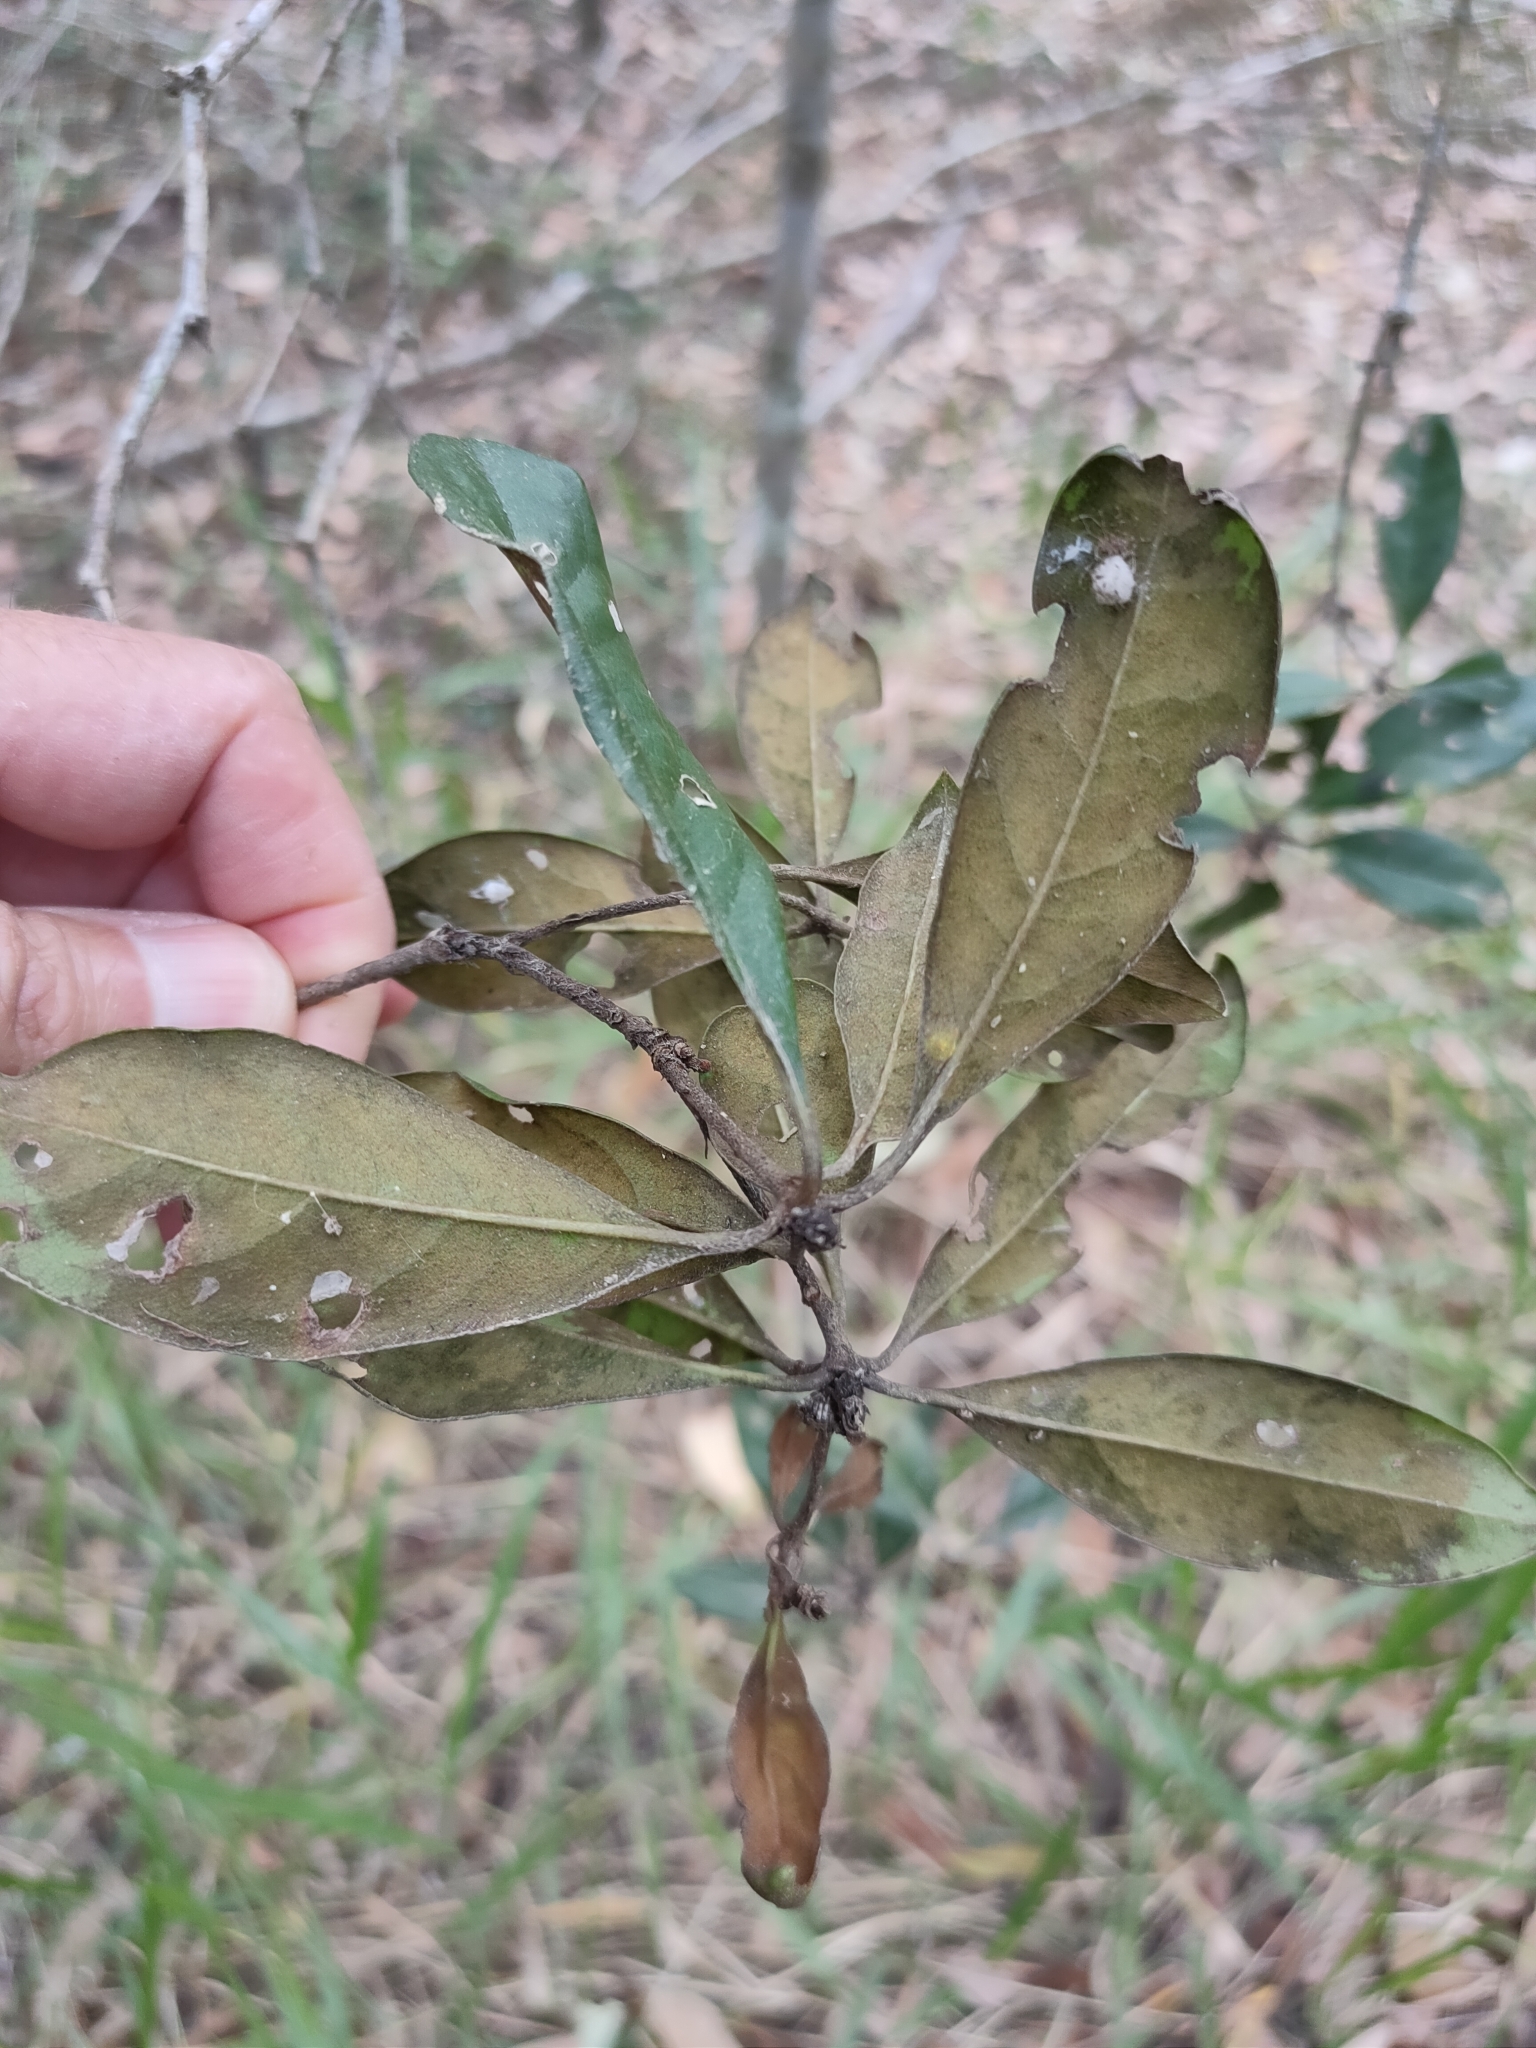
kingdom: Plantae
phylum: Tracheophyta
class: Magnoliopsida
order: Apiales
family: Pittosporaceae
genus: Pittosporum
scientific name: Pittosporum revolutum
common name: Brisbane-laurel
